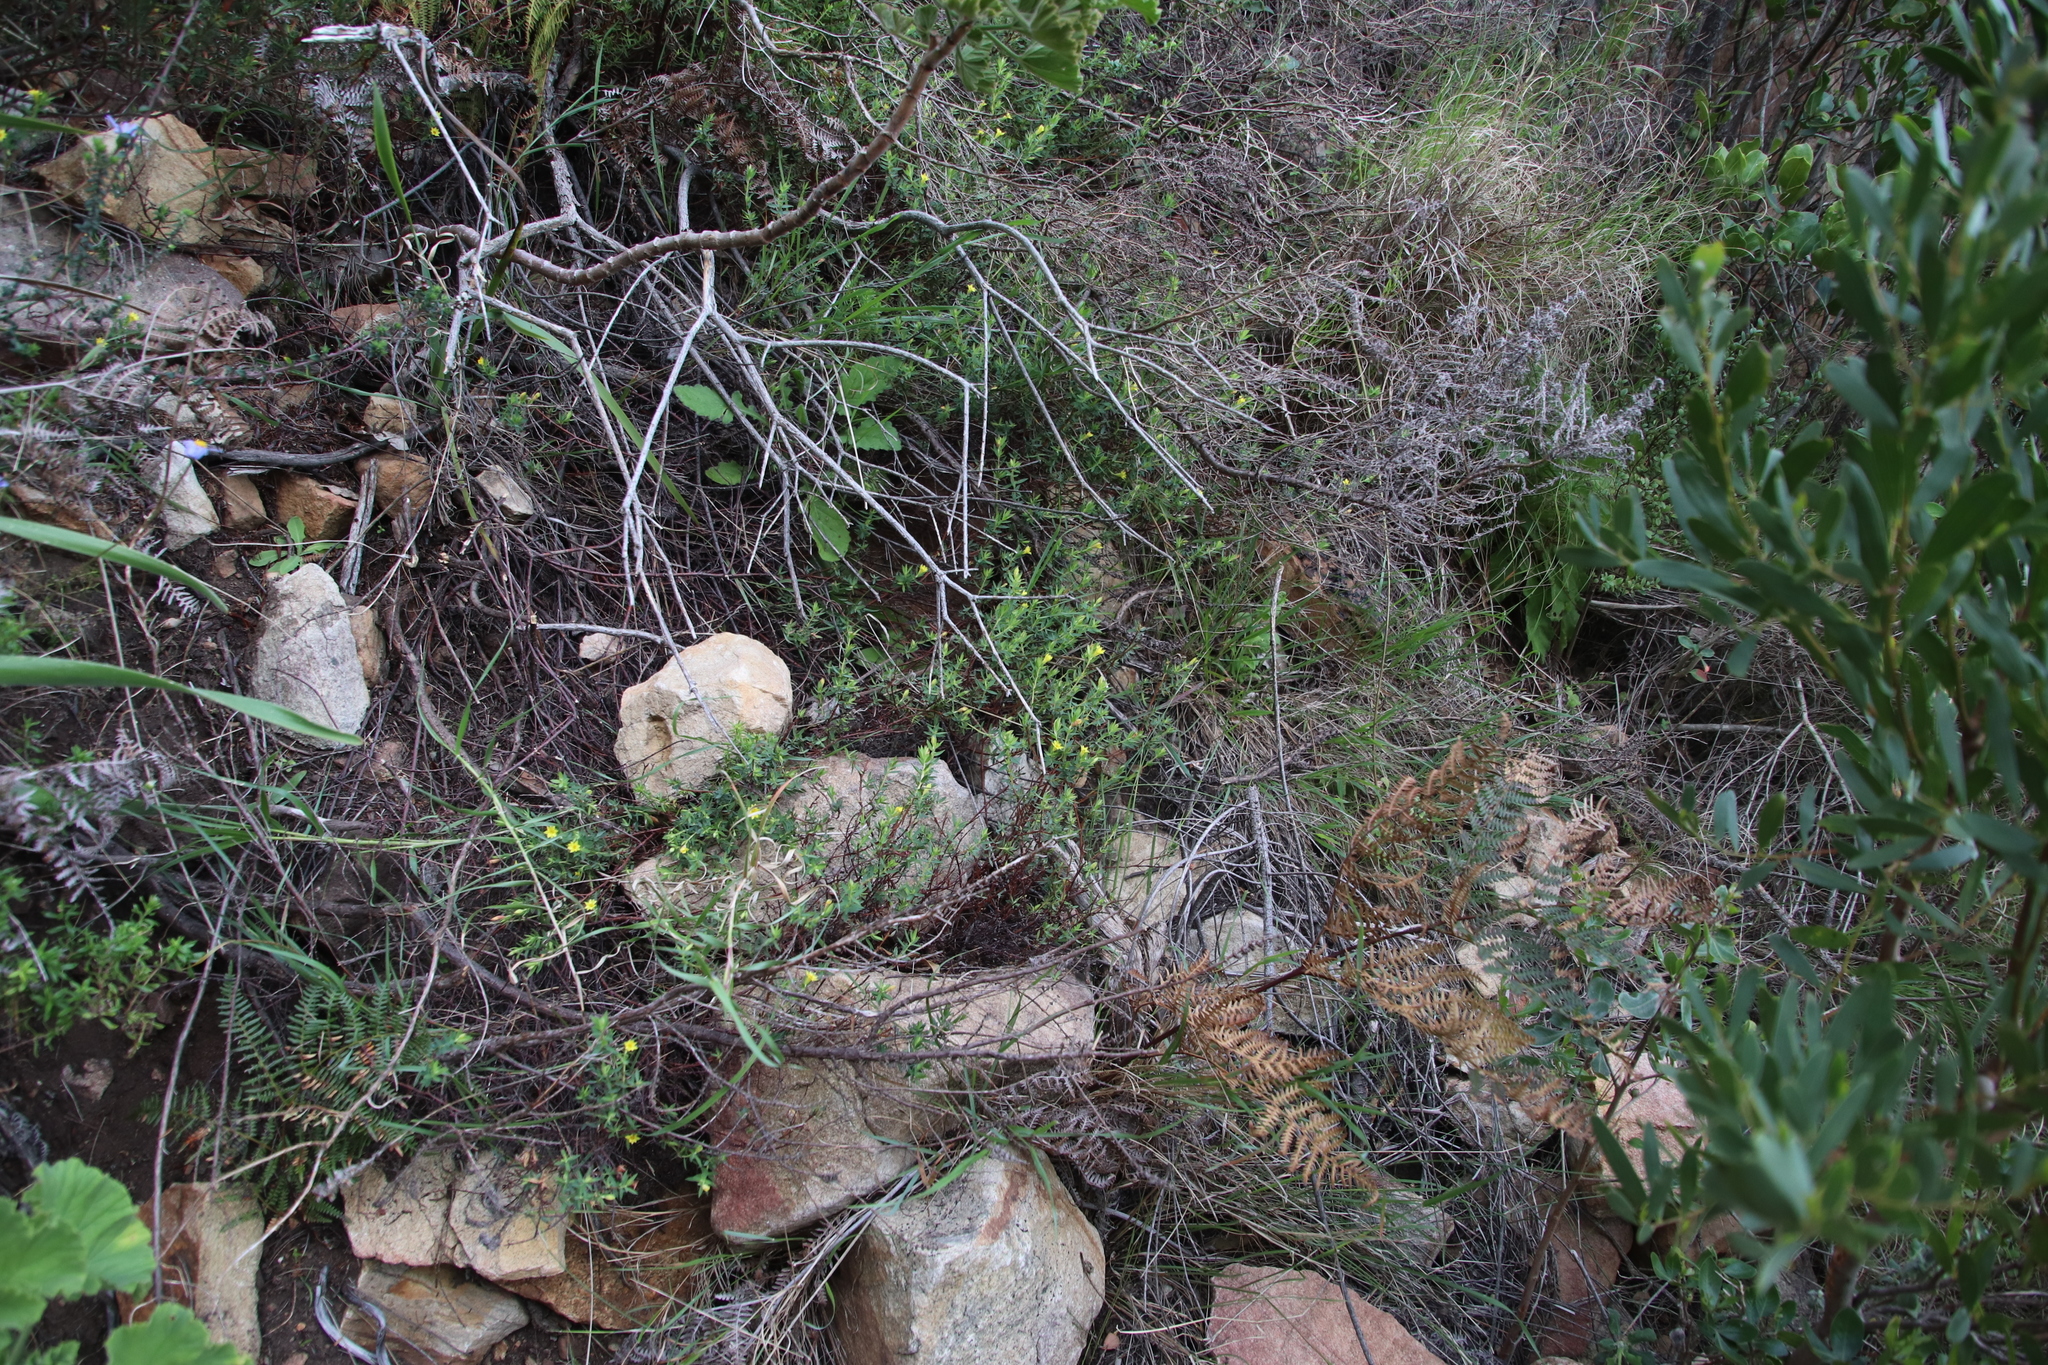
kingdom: Plantae
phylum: Tracheophyta
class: Magnoliopsida
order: Malvales
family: Thymelaeaceae
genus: Gnidia
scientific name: Gnidia juniperifolia
